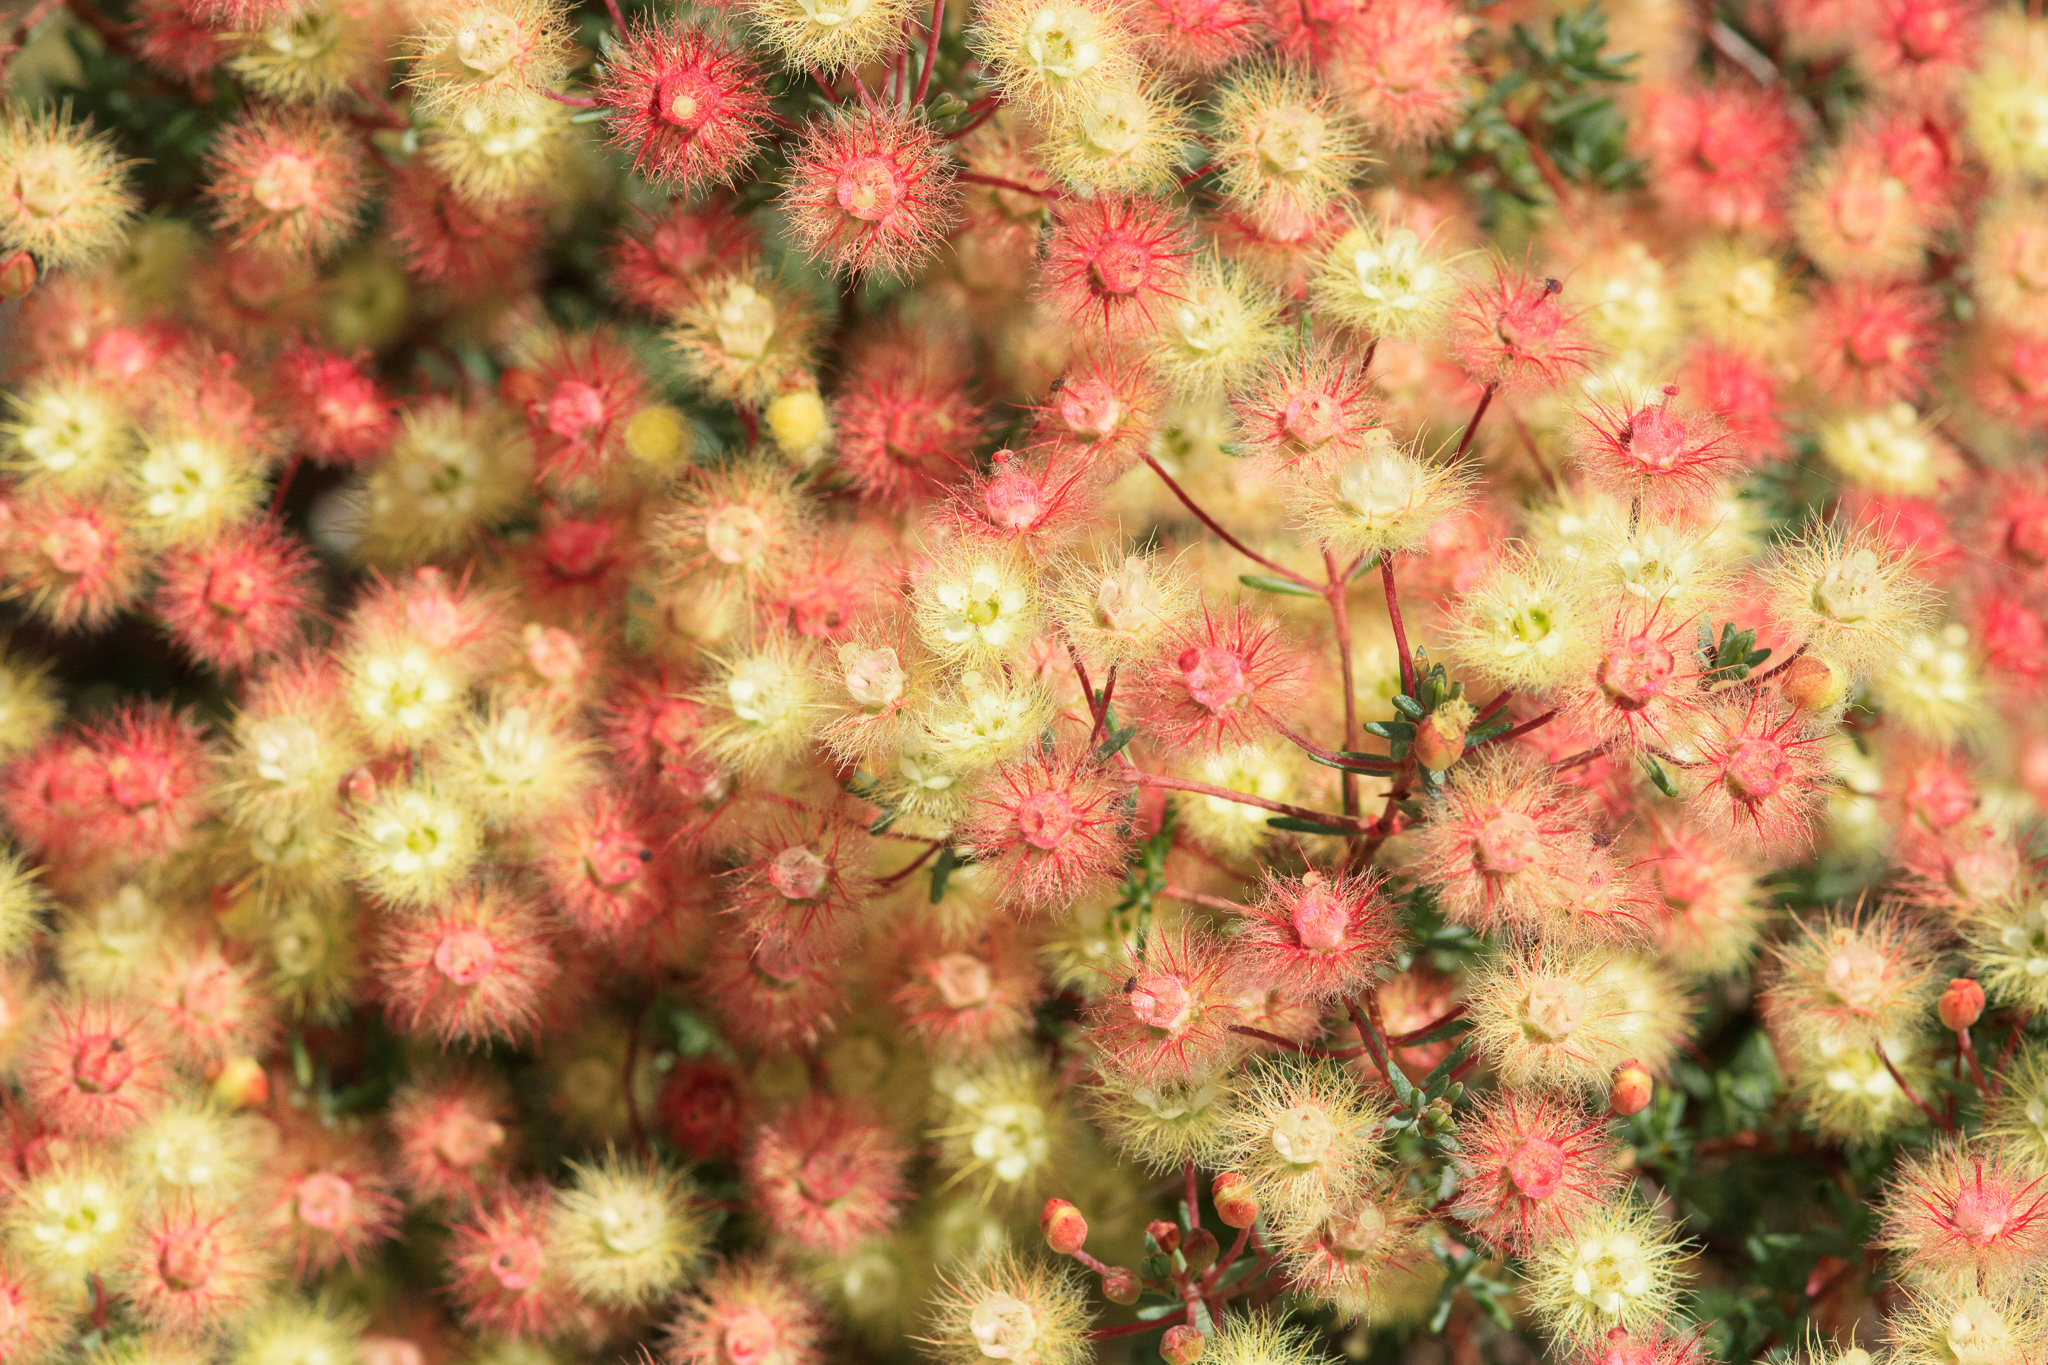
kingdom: Plantae
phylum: Tracheophyta
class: Magnoliopsida
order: Myrtales
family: Myrtaceae
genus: Verticordia
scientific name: Verticordia huegelii
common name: Variegate feather-flower
